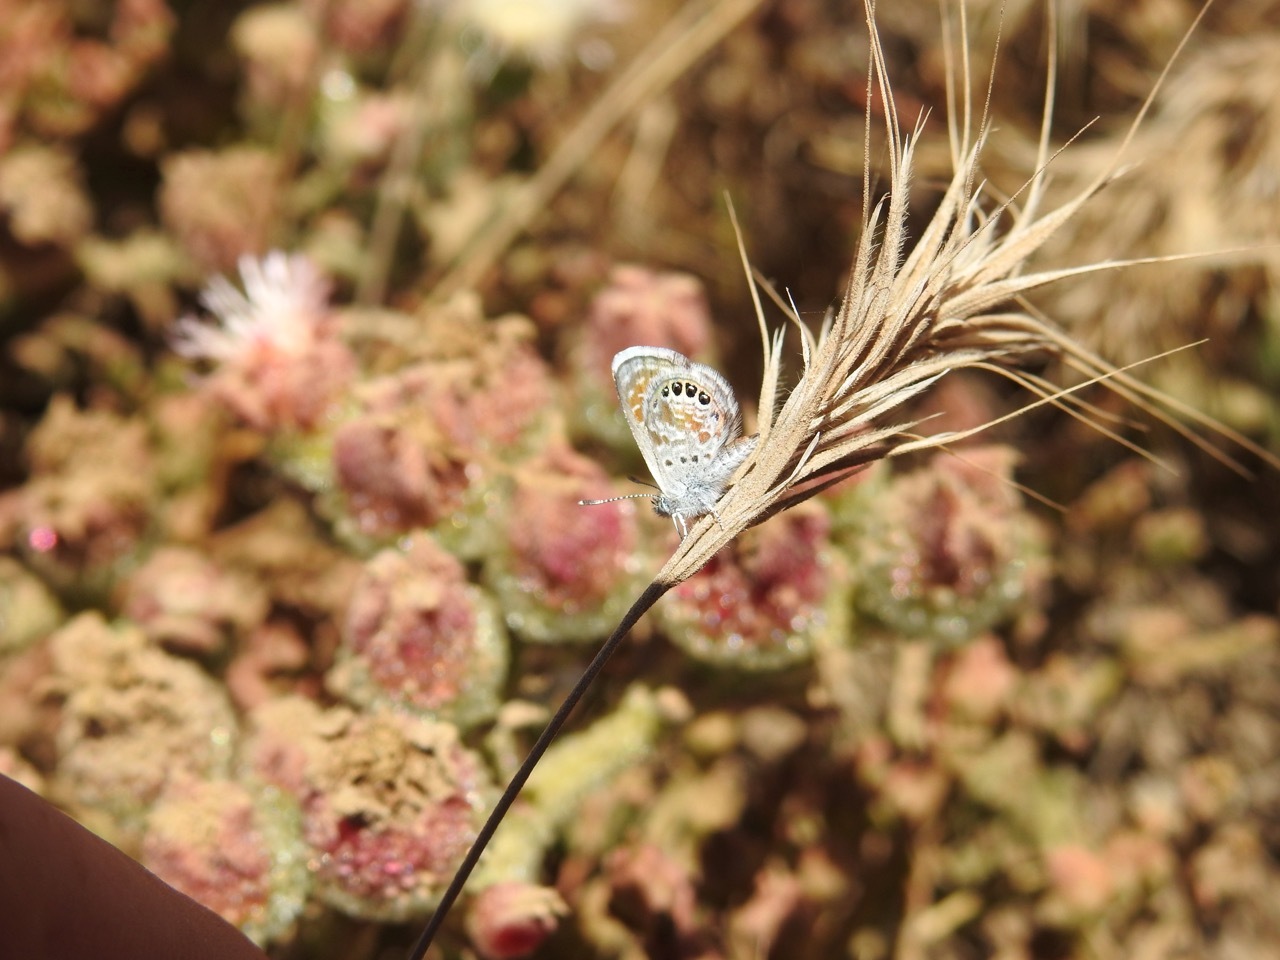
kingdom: Animalia
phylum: Arthropoda
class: Insecta
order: Lepidoptera
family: Lycaenidae
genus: Brephidium
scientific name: Brephidium exilis
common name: Pygmy blue
